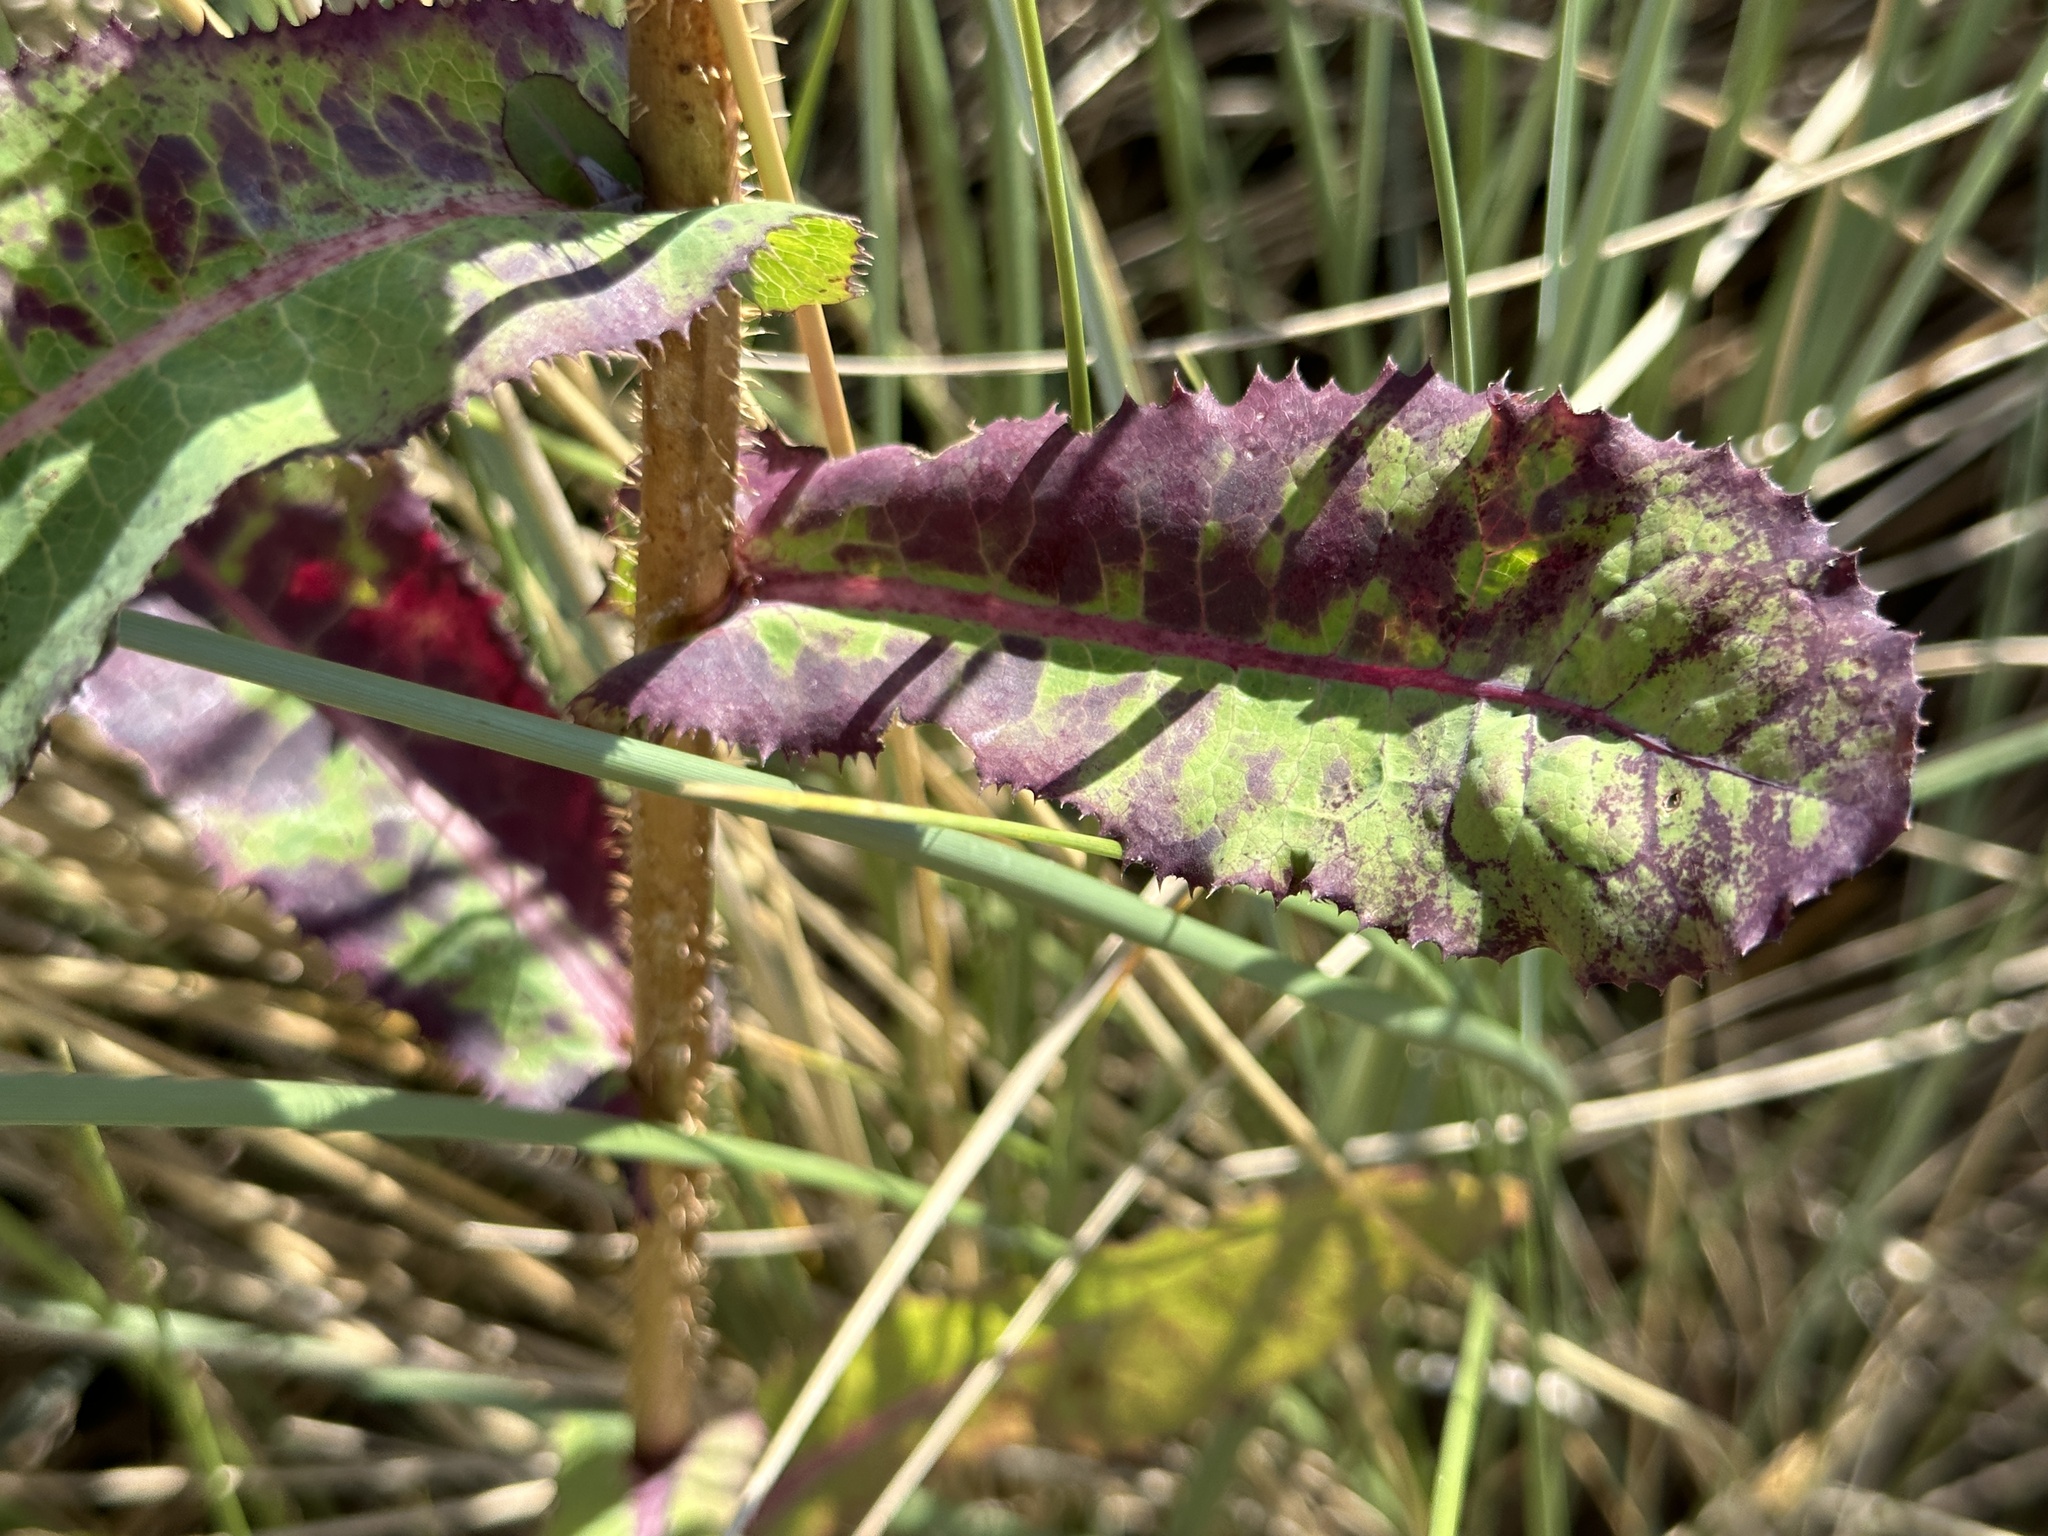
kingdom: Plantae
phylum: Tracheophyta
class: Magnoliopsida
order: Asterales
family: Asteraceae
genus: Lactuca
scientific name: Lactuca virosa
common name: Great lettuce
